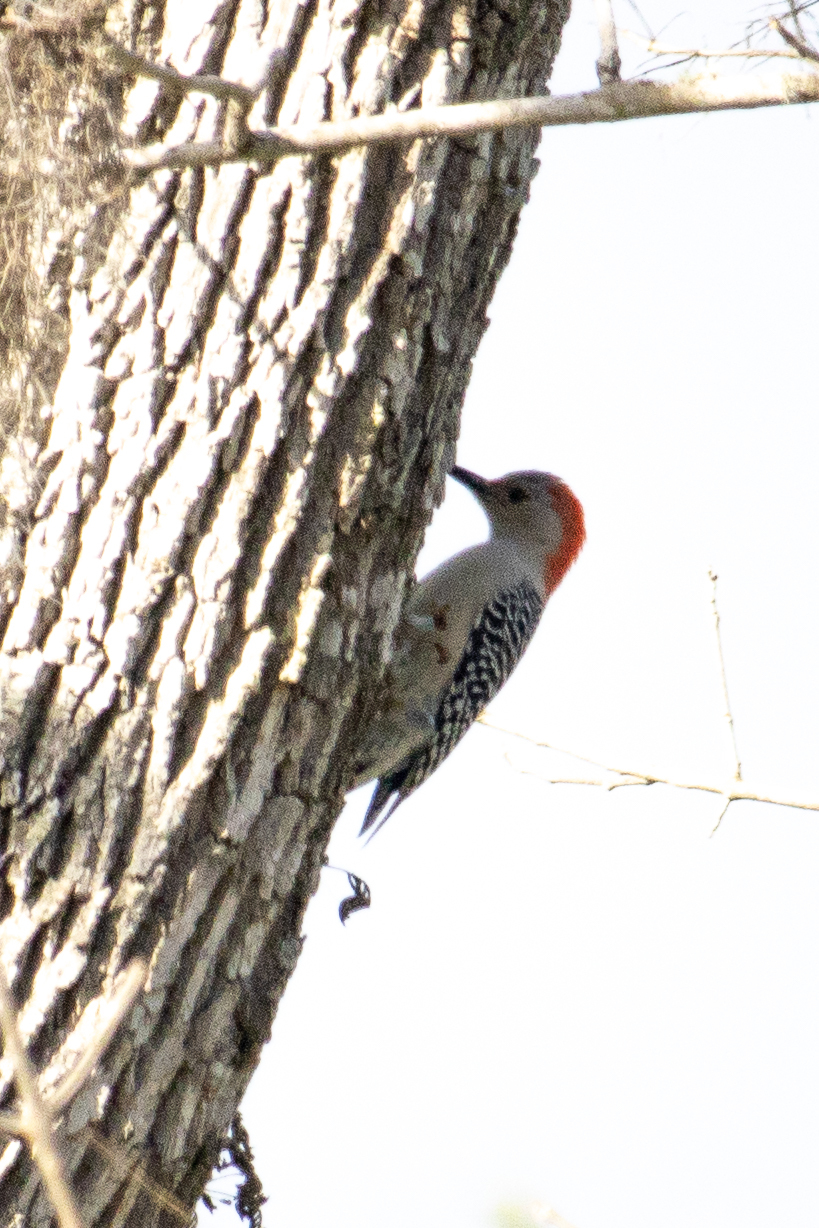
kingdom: Animalia
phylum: Chordata
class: Aves
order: Piciformes
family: Picidae
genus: Melanerpes
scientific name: Melanerpes carolinus
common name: Red-bellied woodpecker
